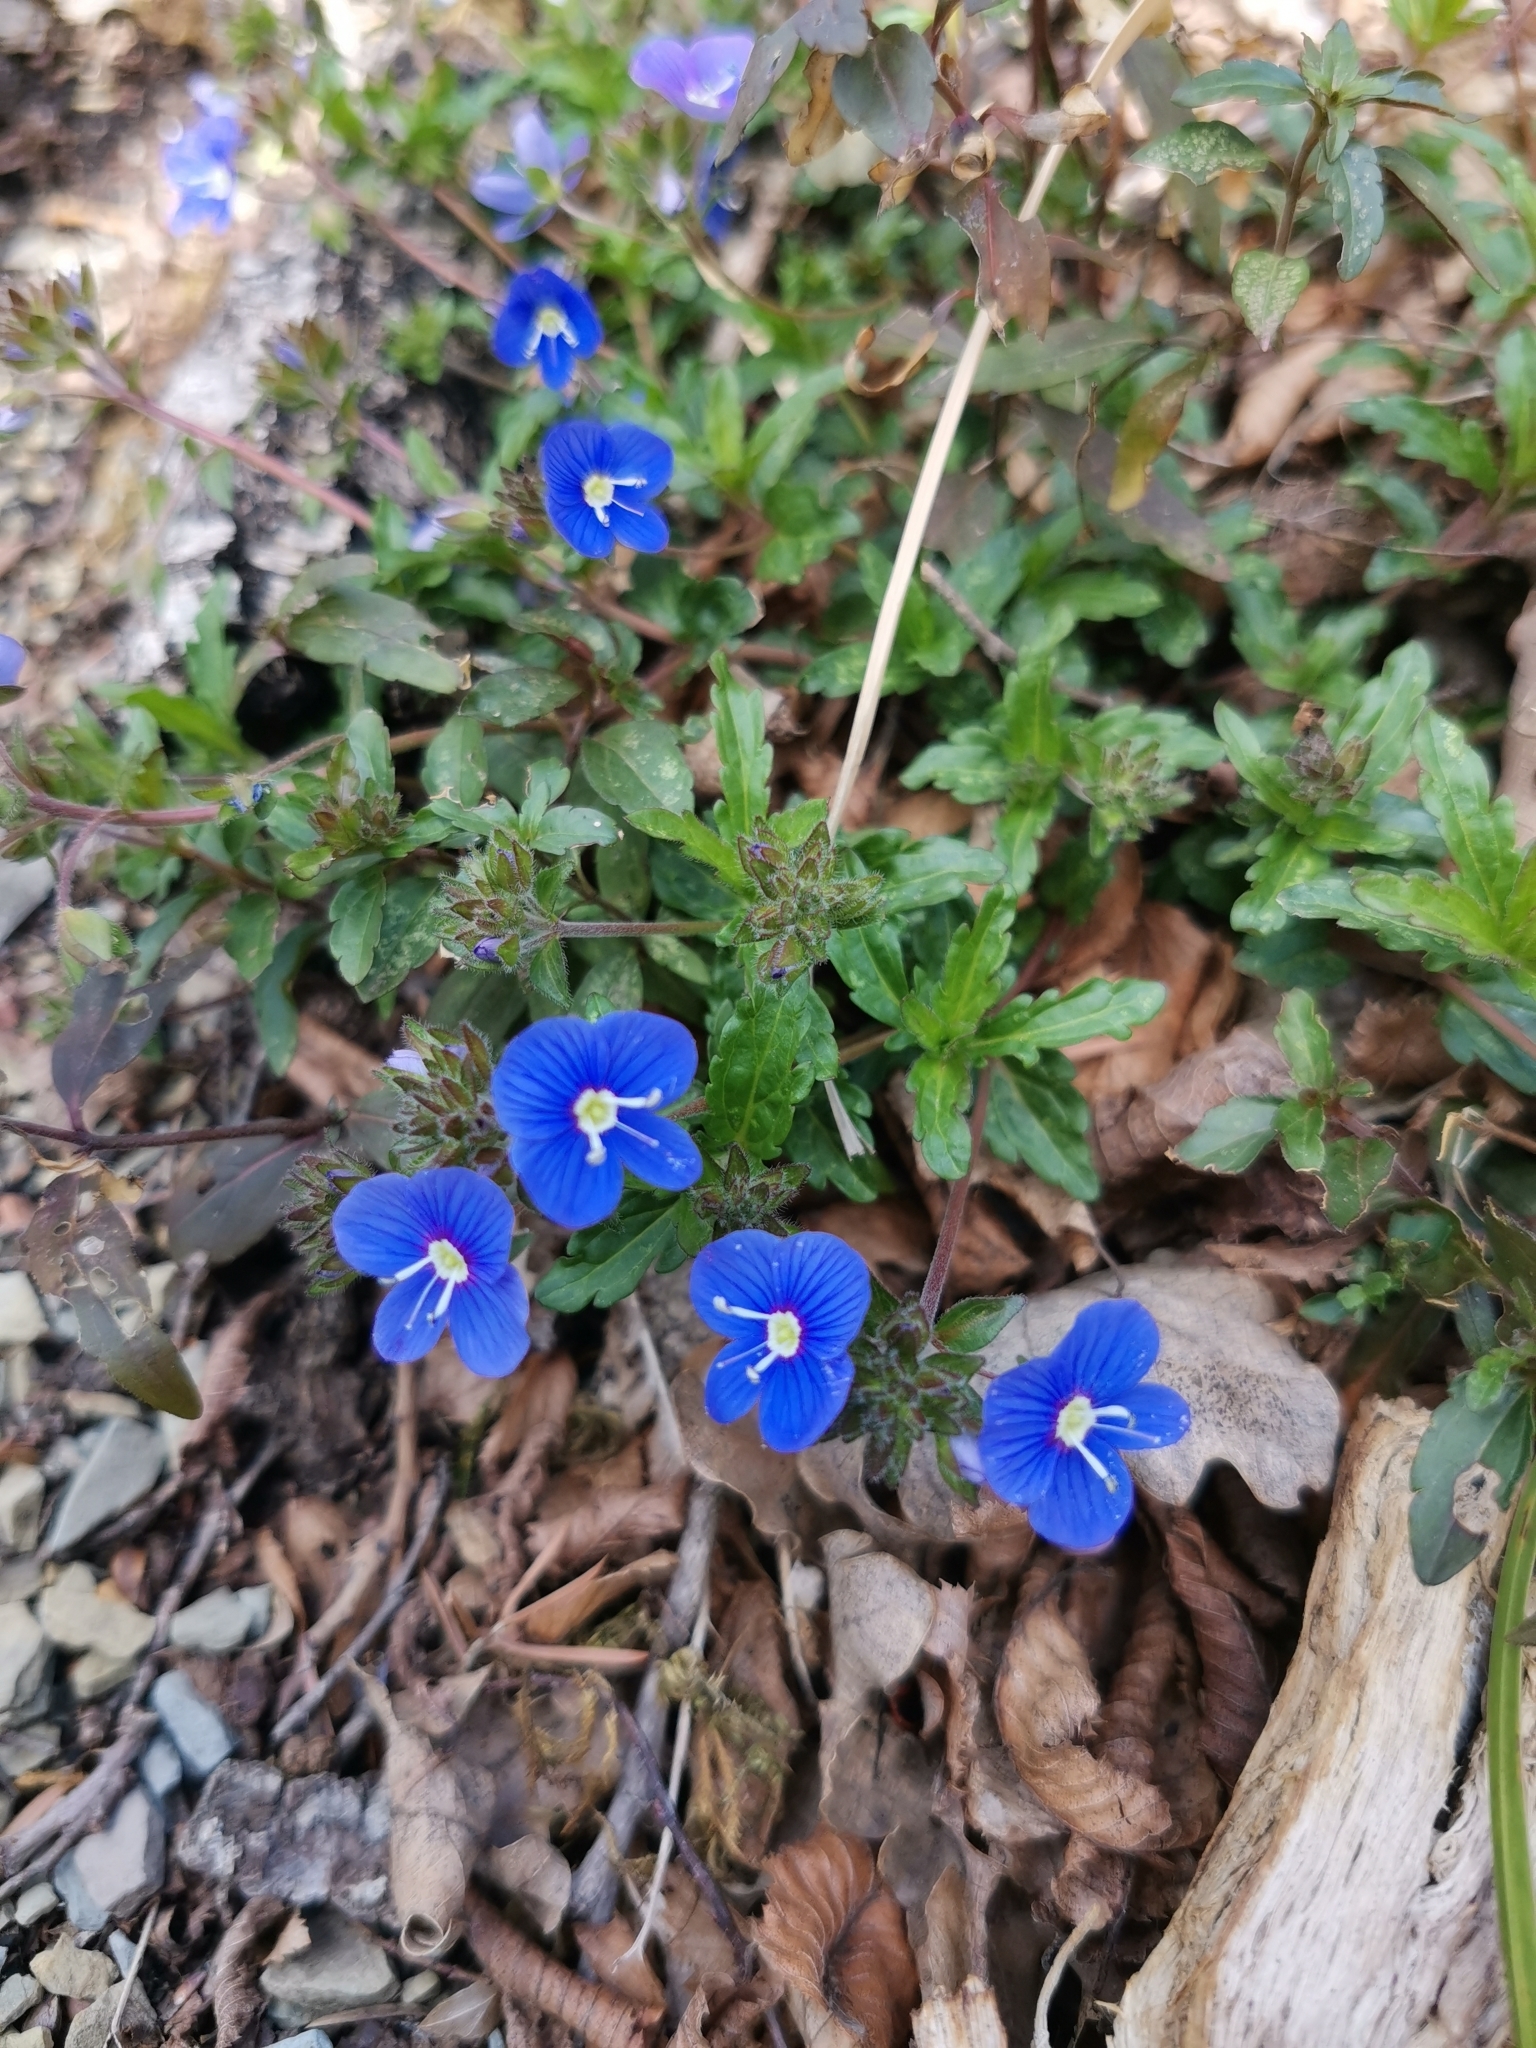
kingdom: Plantae
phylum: Tracheophyta
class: Magnoliopsida
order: Lamiales
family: Plantaginaceae
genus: Veronica
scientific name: Veronica
